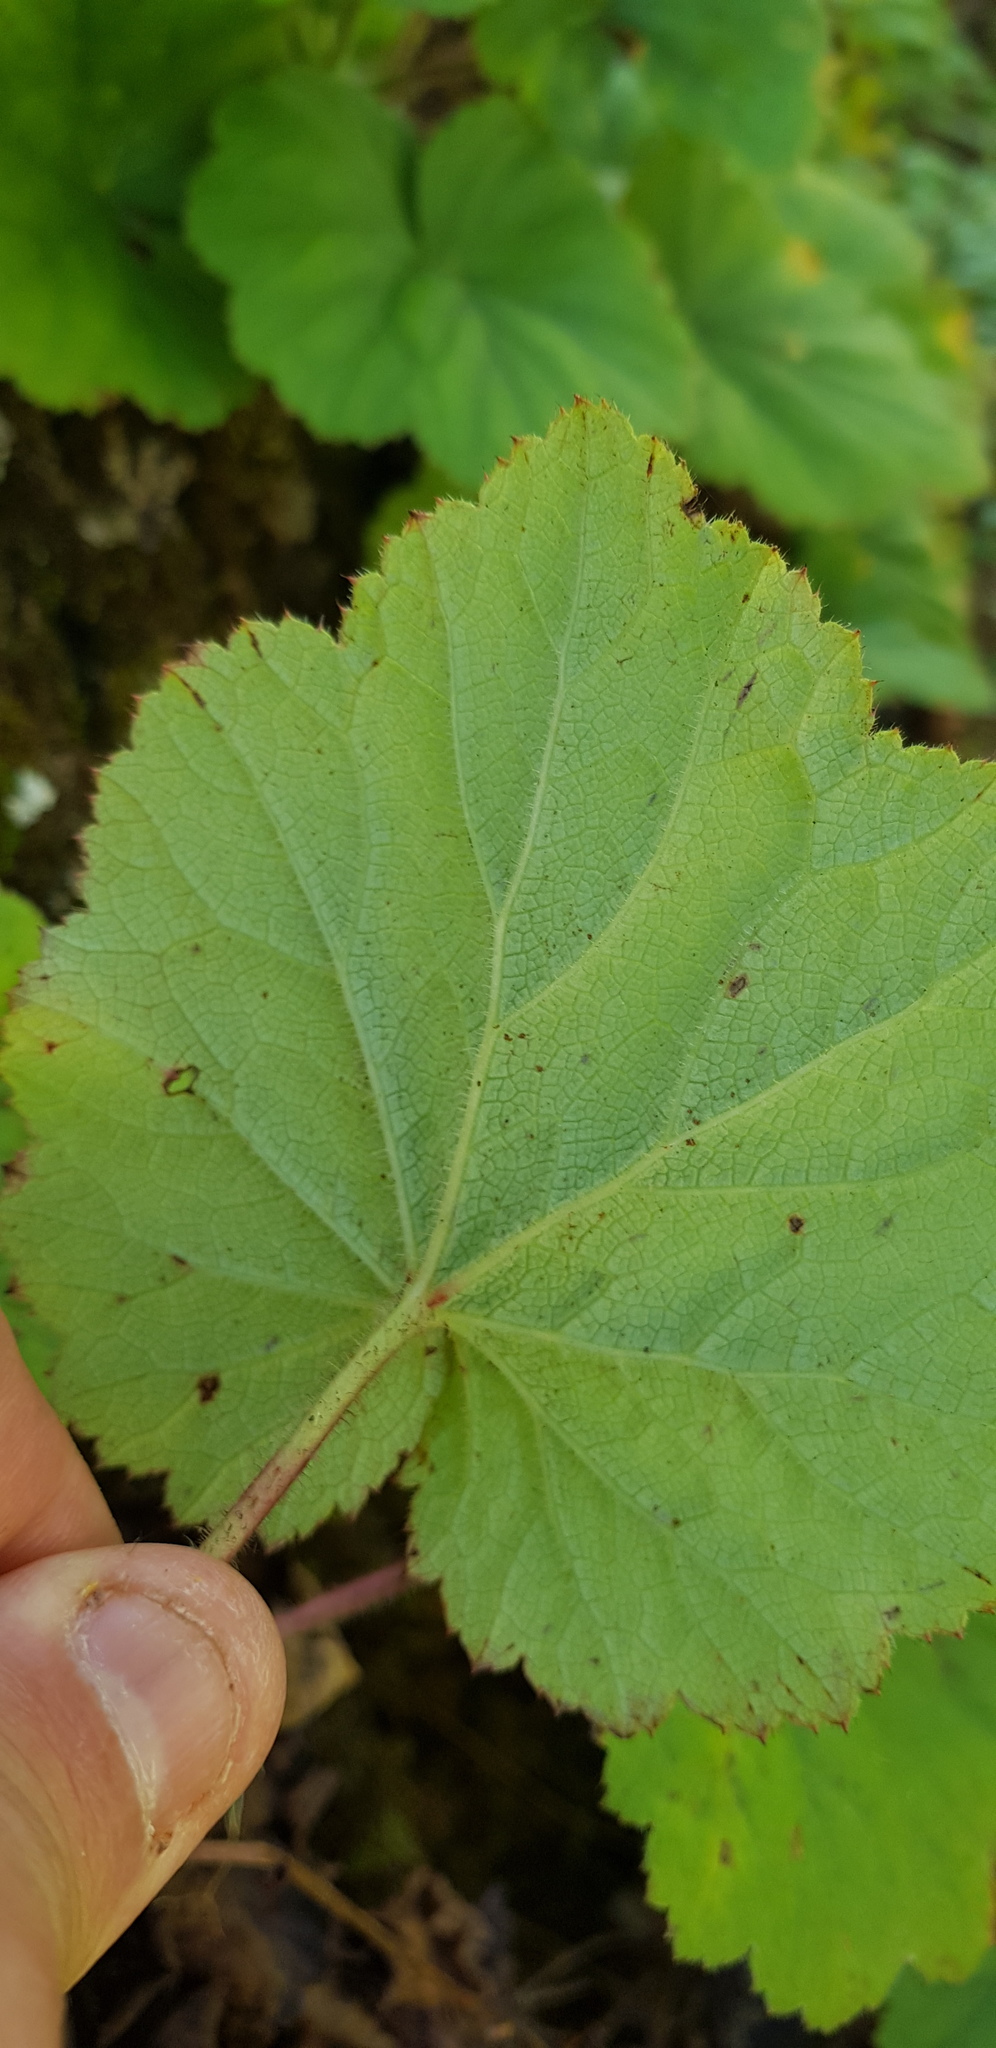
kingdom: Plantae
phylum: Tracheophyta
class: Magnoliopsida
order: Saxifragales
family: Saxifragaceae
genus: Heuchera
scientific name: Heuchera longipetala
